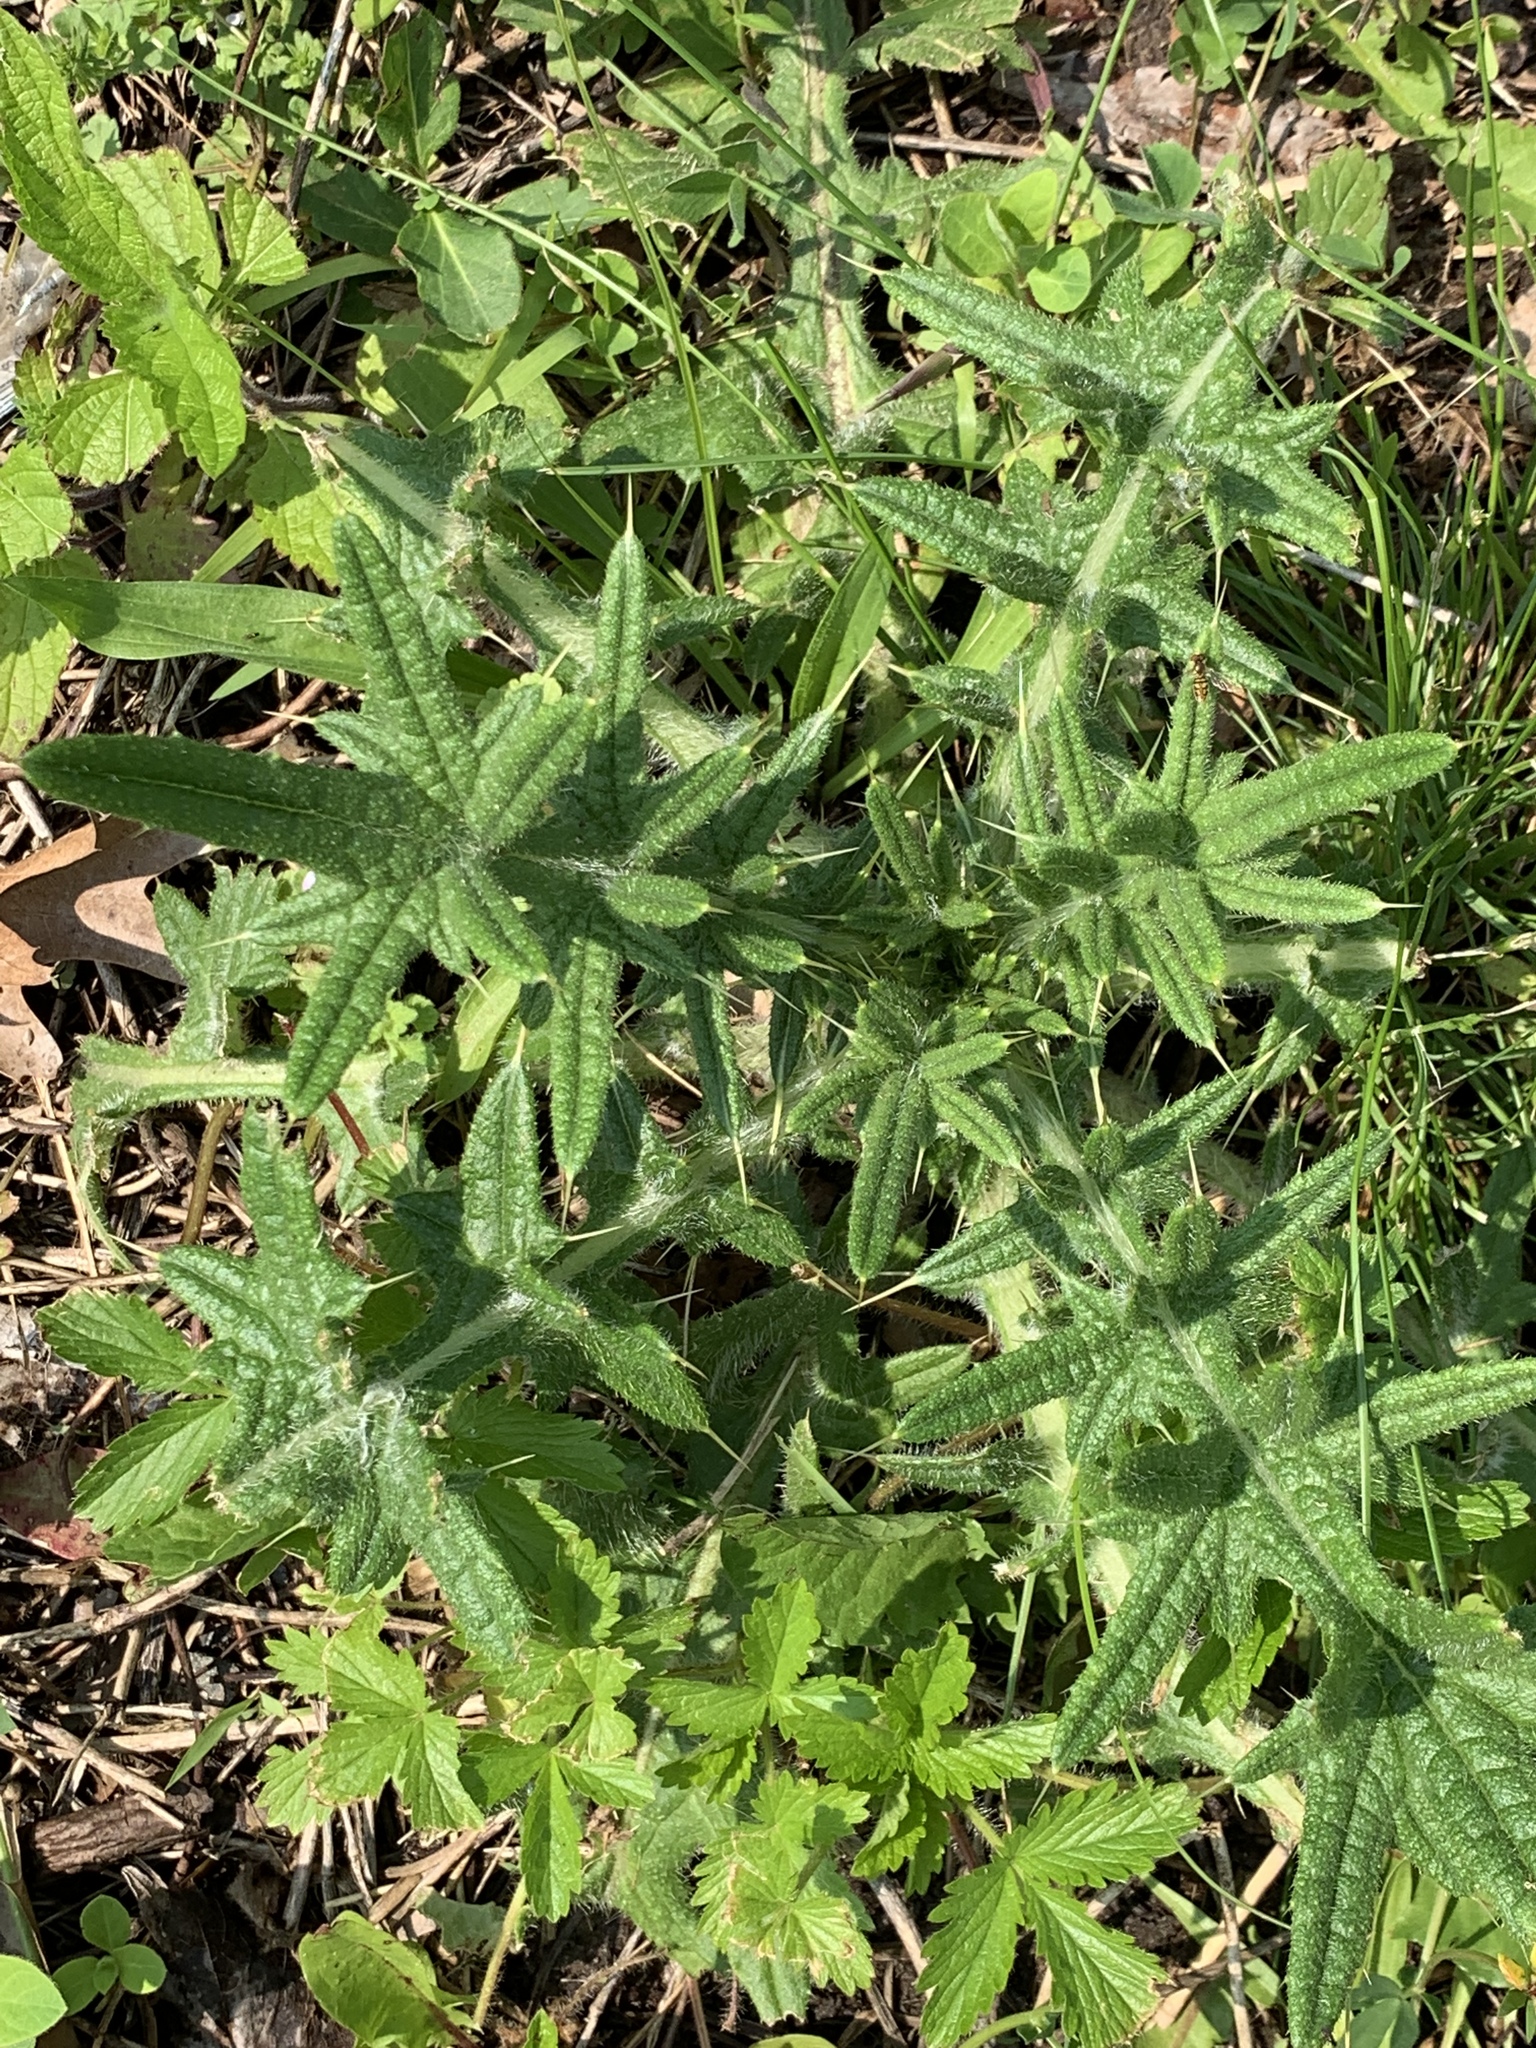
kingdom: Plantae
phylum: Tracheophyta
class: Magnoliopsida
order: Asterales
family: Asteraceae
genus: Cirsium
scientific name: Cirsium vulgare
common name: Bull thistle
